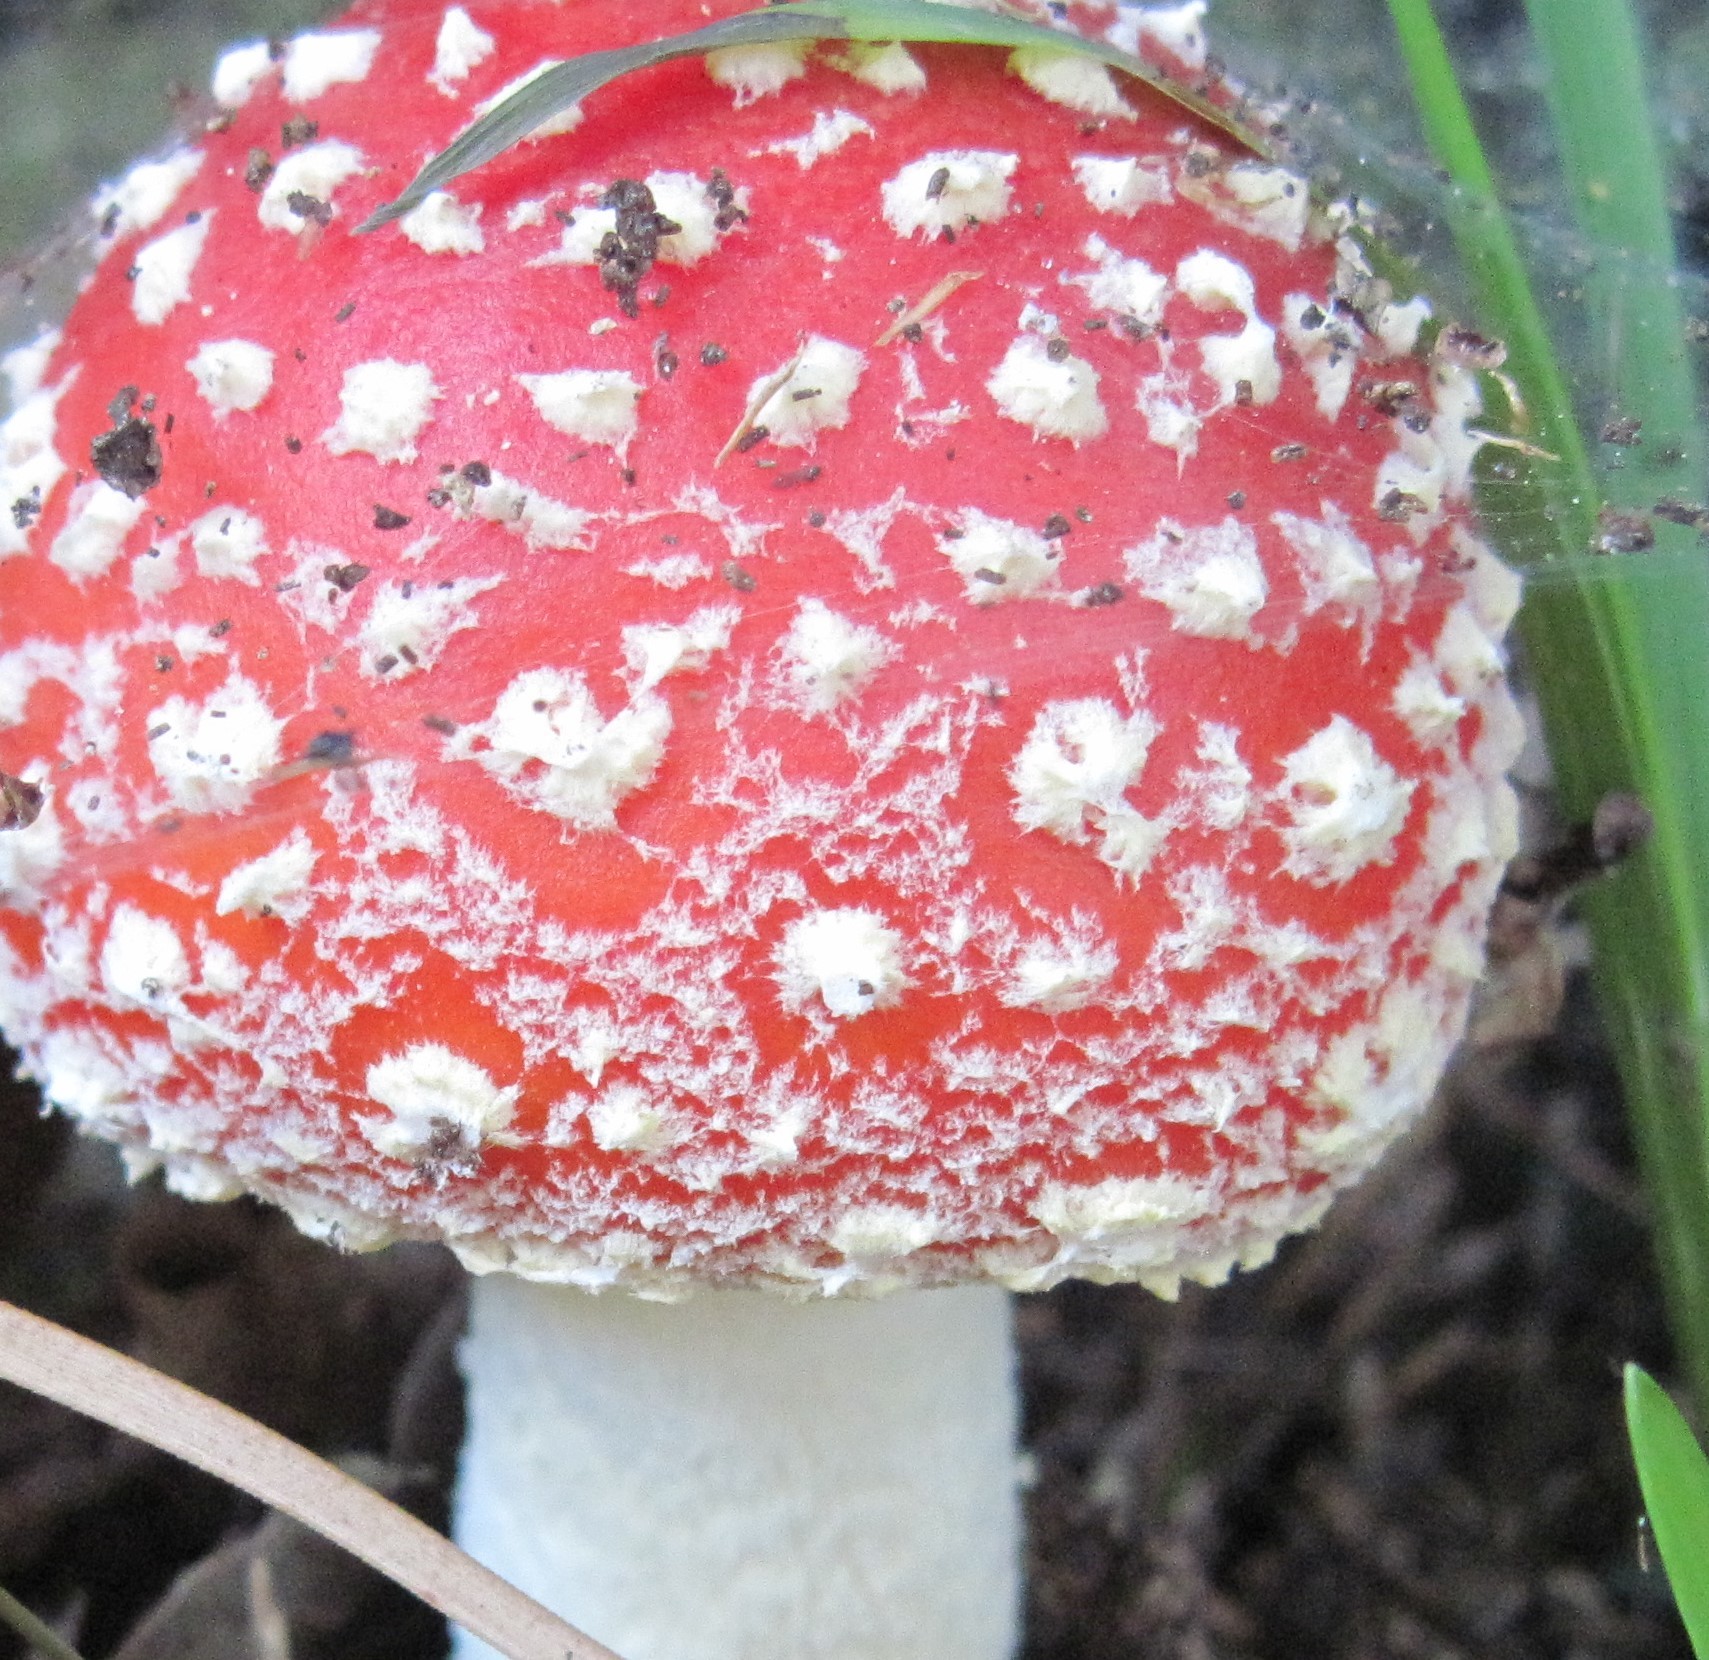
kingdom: Fungi
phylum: Basidiomycota
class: Agaricomycetes
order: Agaricales
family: Amanitaceae
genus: Amanita
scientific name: Amanita muscaria
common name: Fly agaric
